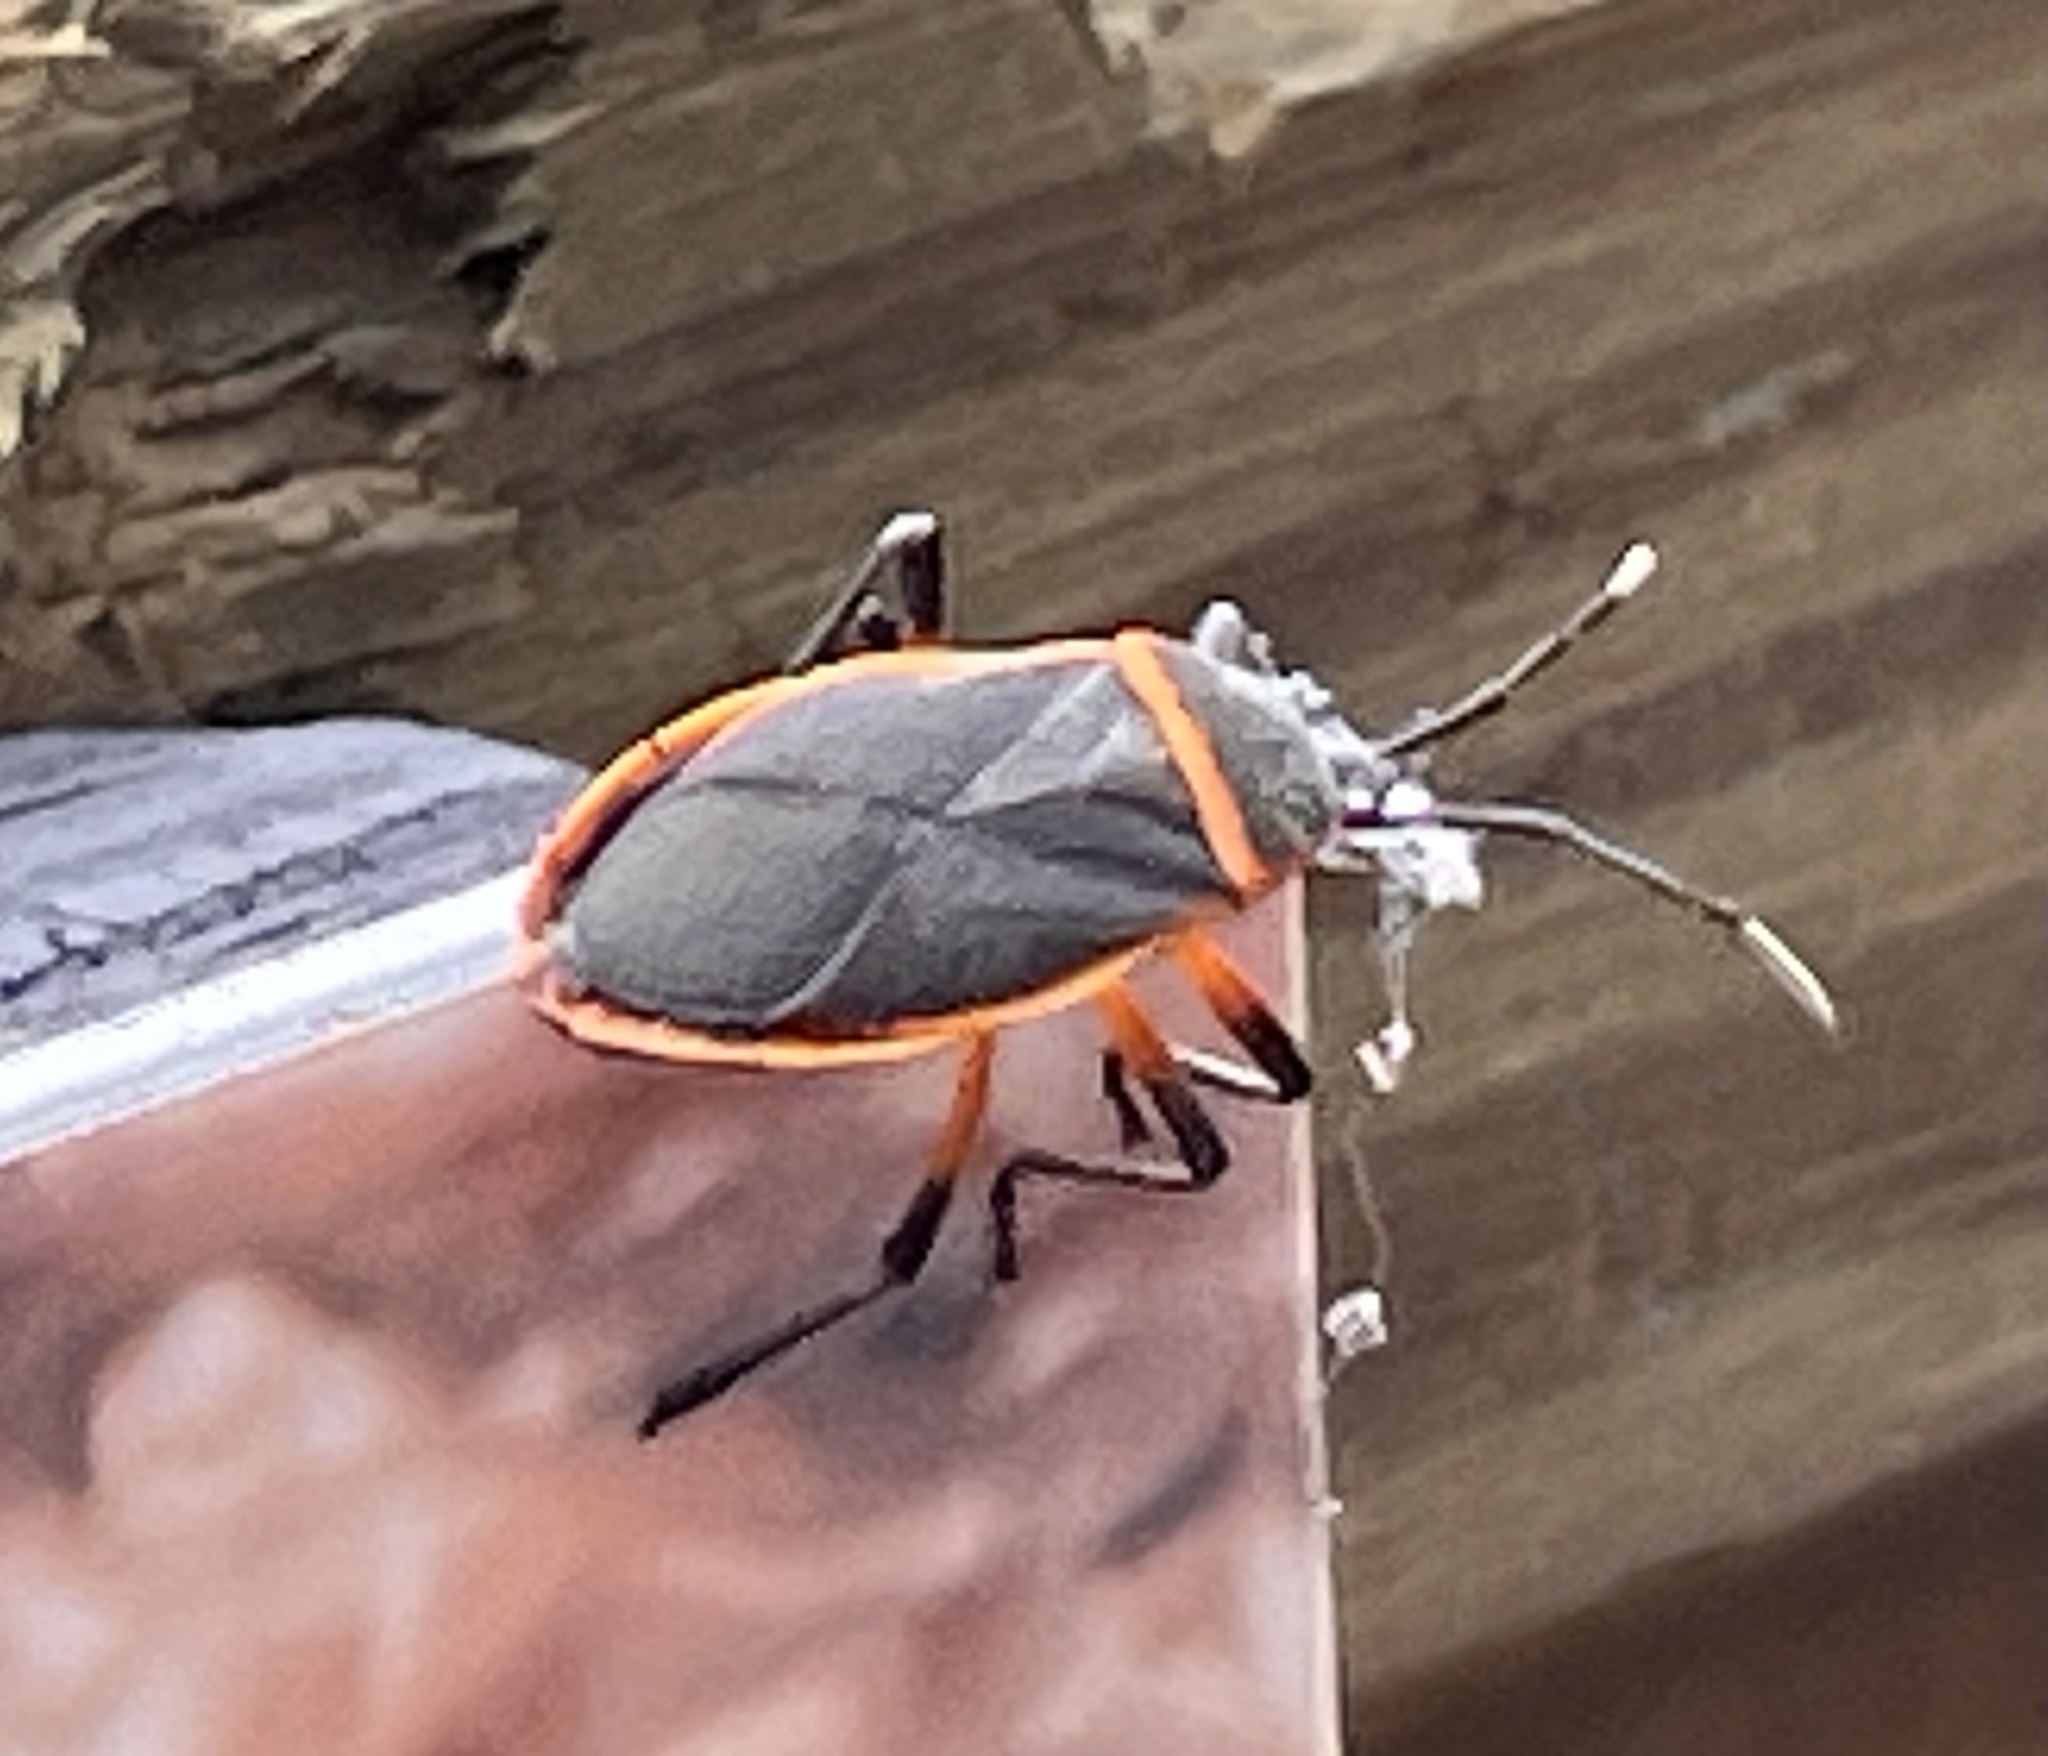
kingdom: Animalia
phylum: Arthropoda
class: Insecta
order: Hemiptera
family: Largidae
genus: Largus
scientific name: Largus succinctus
